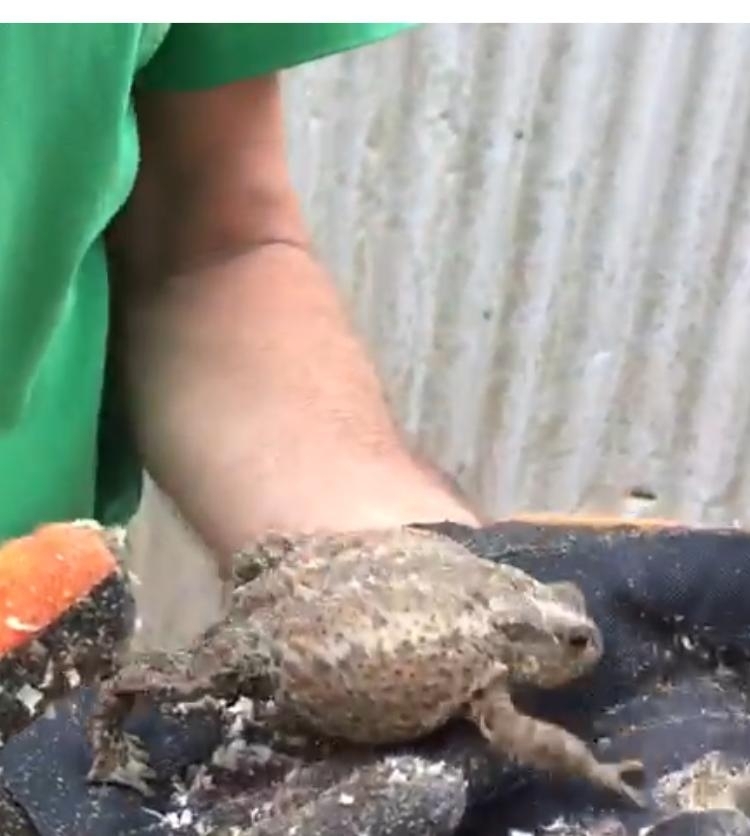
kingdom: Animalia
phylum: Chordata
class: Amphibia
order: Anura
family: Bufonidae
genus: Bufo
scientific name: Bufo bufo
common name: Common toad
